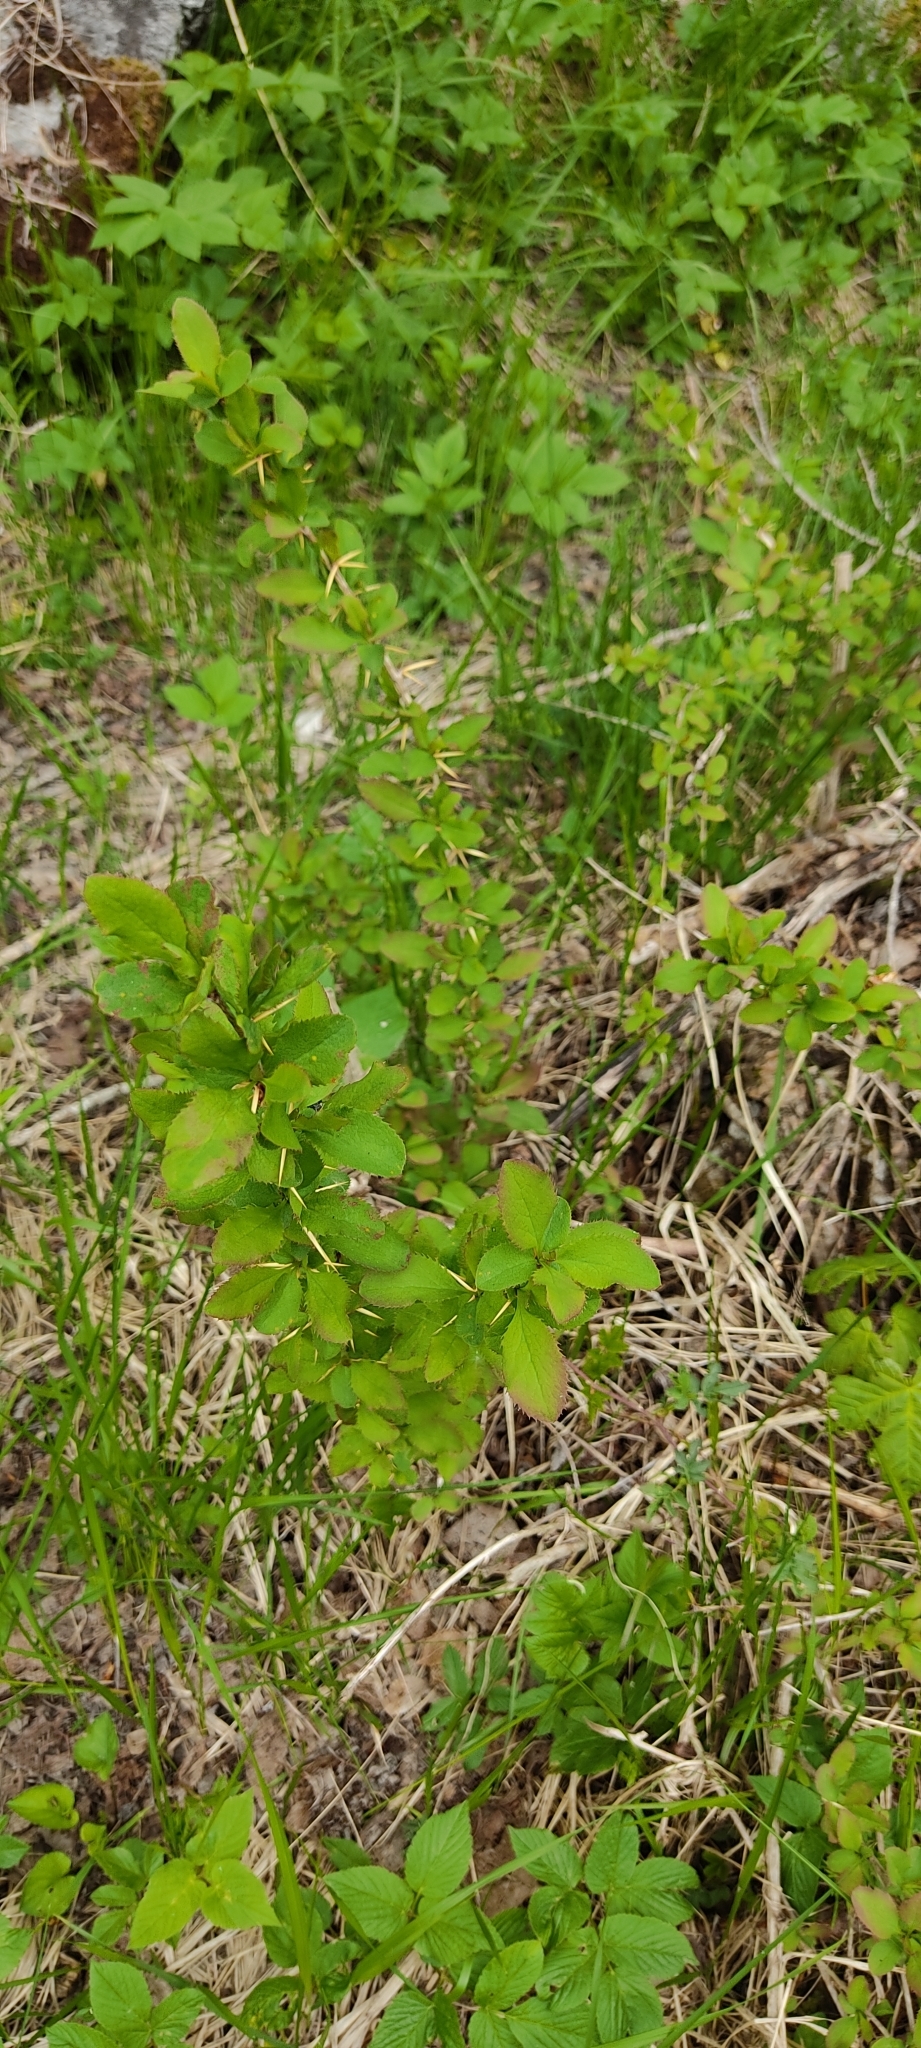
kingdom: Plantae
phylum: Tracheophyta
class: Magnoliopsida
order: Ranunculales
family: Berberidaceae
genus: Berberis
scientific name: Berberis vulgaris
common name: Barberry
